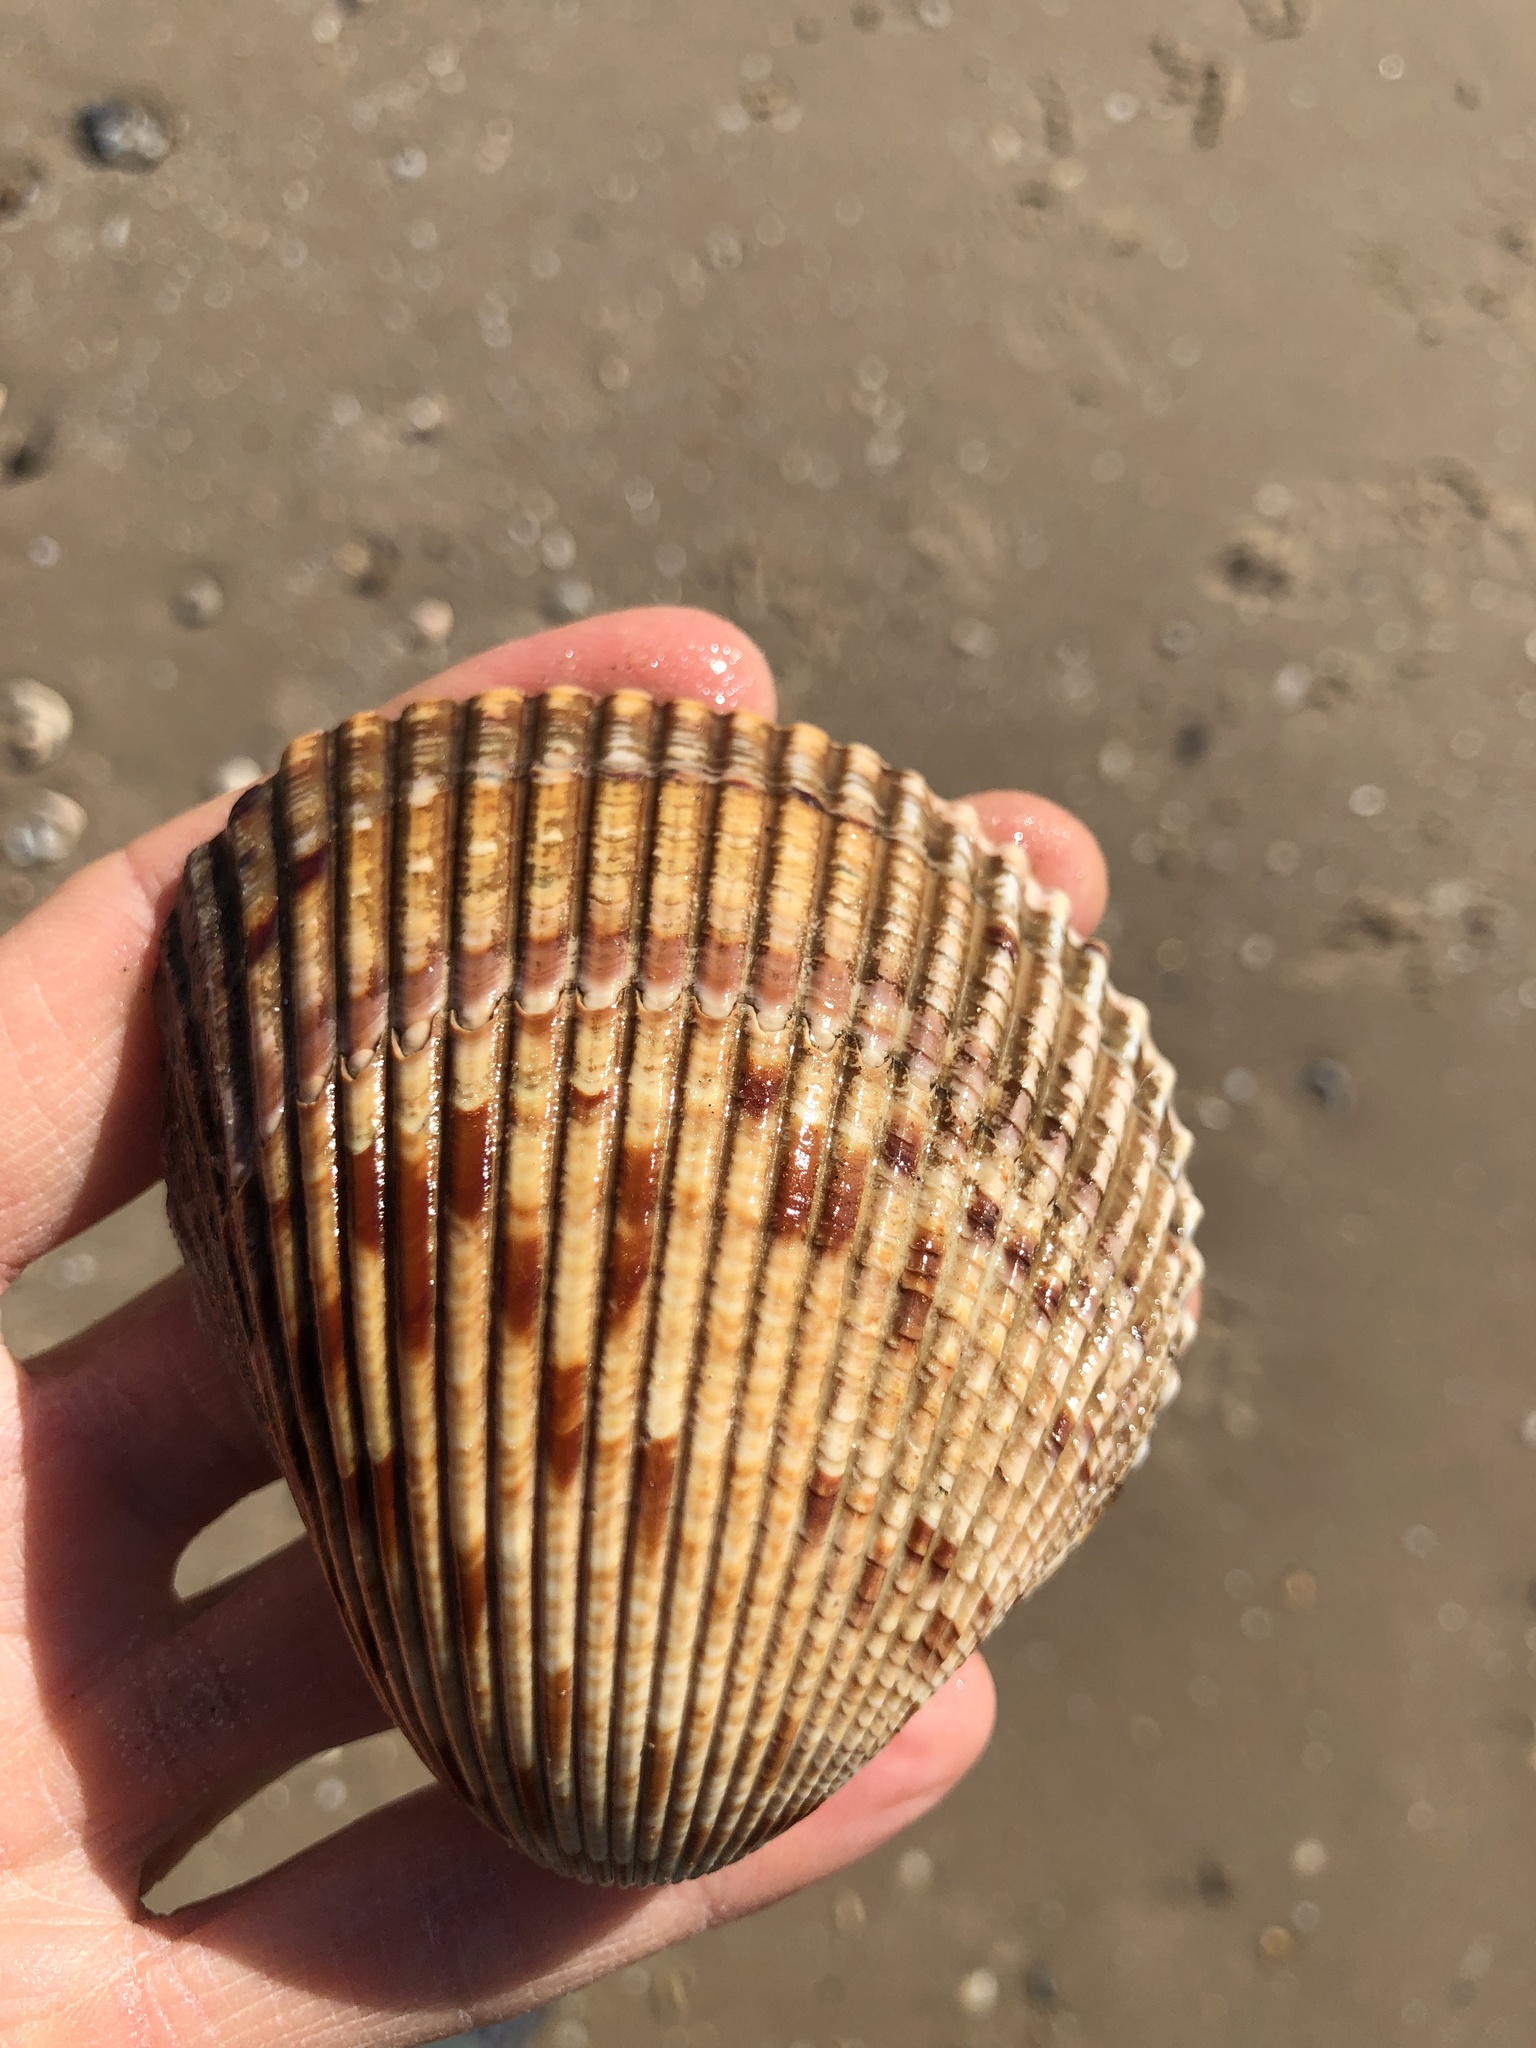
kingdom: Animalia
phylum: Mollusca
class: Bivalvia
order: Cardiida
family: Cardiidae
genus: Dinocardium
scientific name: Dinocardium robustum
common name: Atlantic giant cockle
